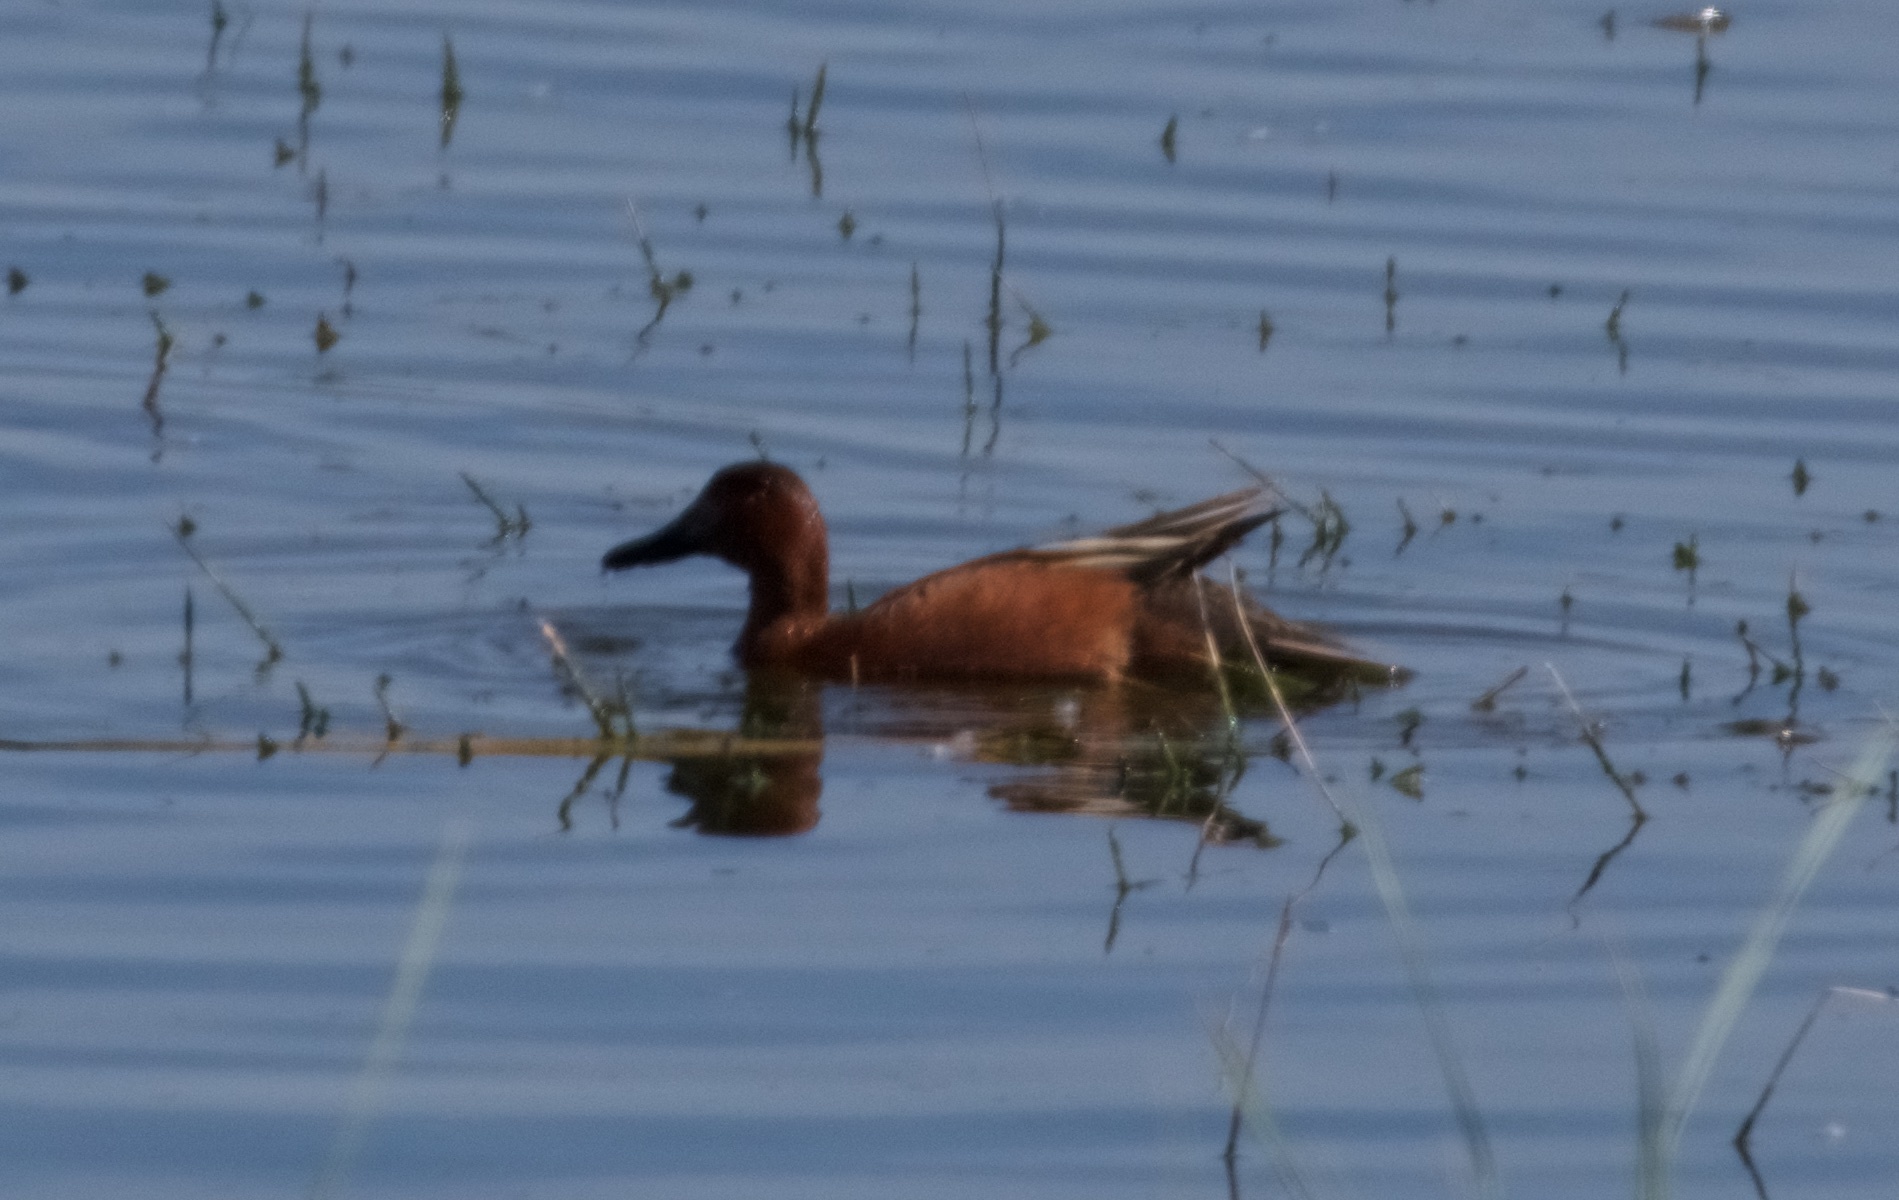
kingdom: Animalia
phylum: Chordata
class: Aves
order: Anseriformes
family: Anatidae
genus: Spatula
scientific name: Spatula cyanoptera
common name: Cinnamon teal
